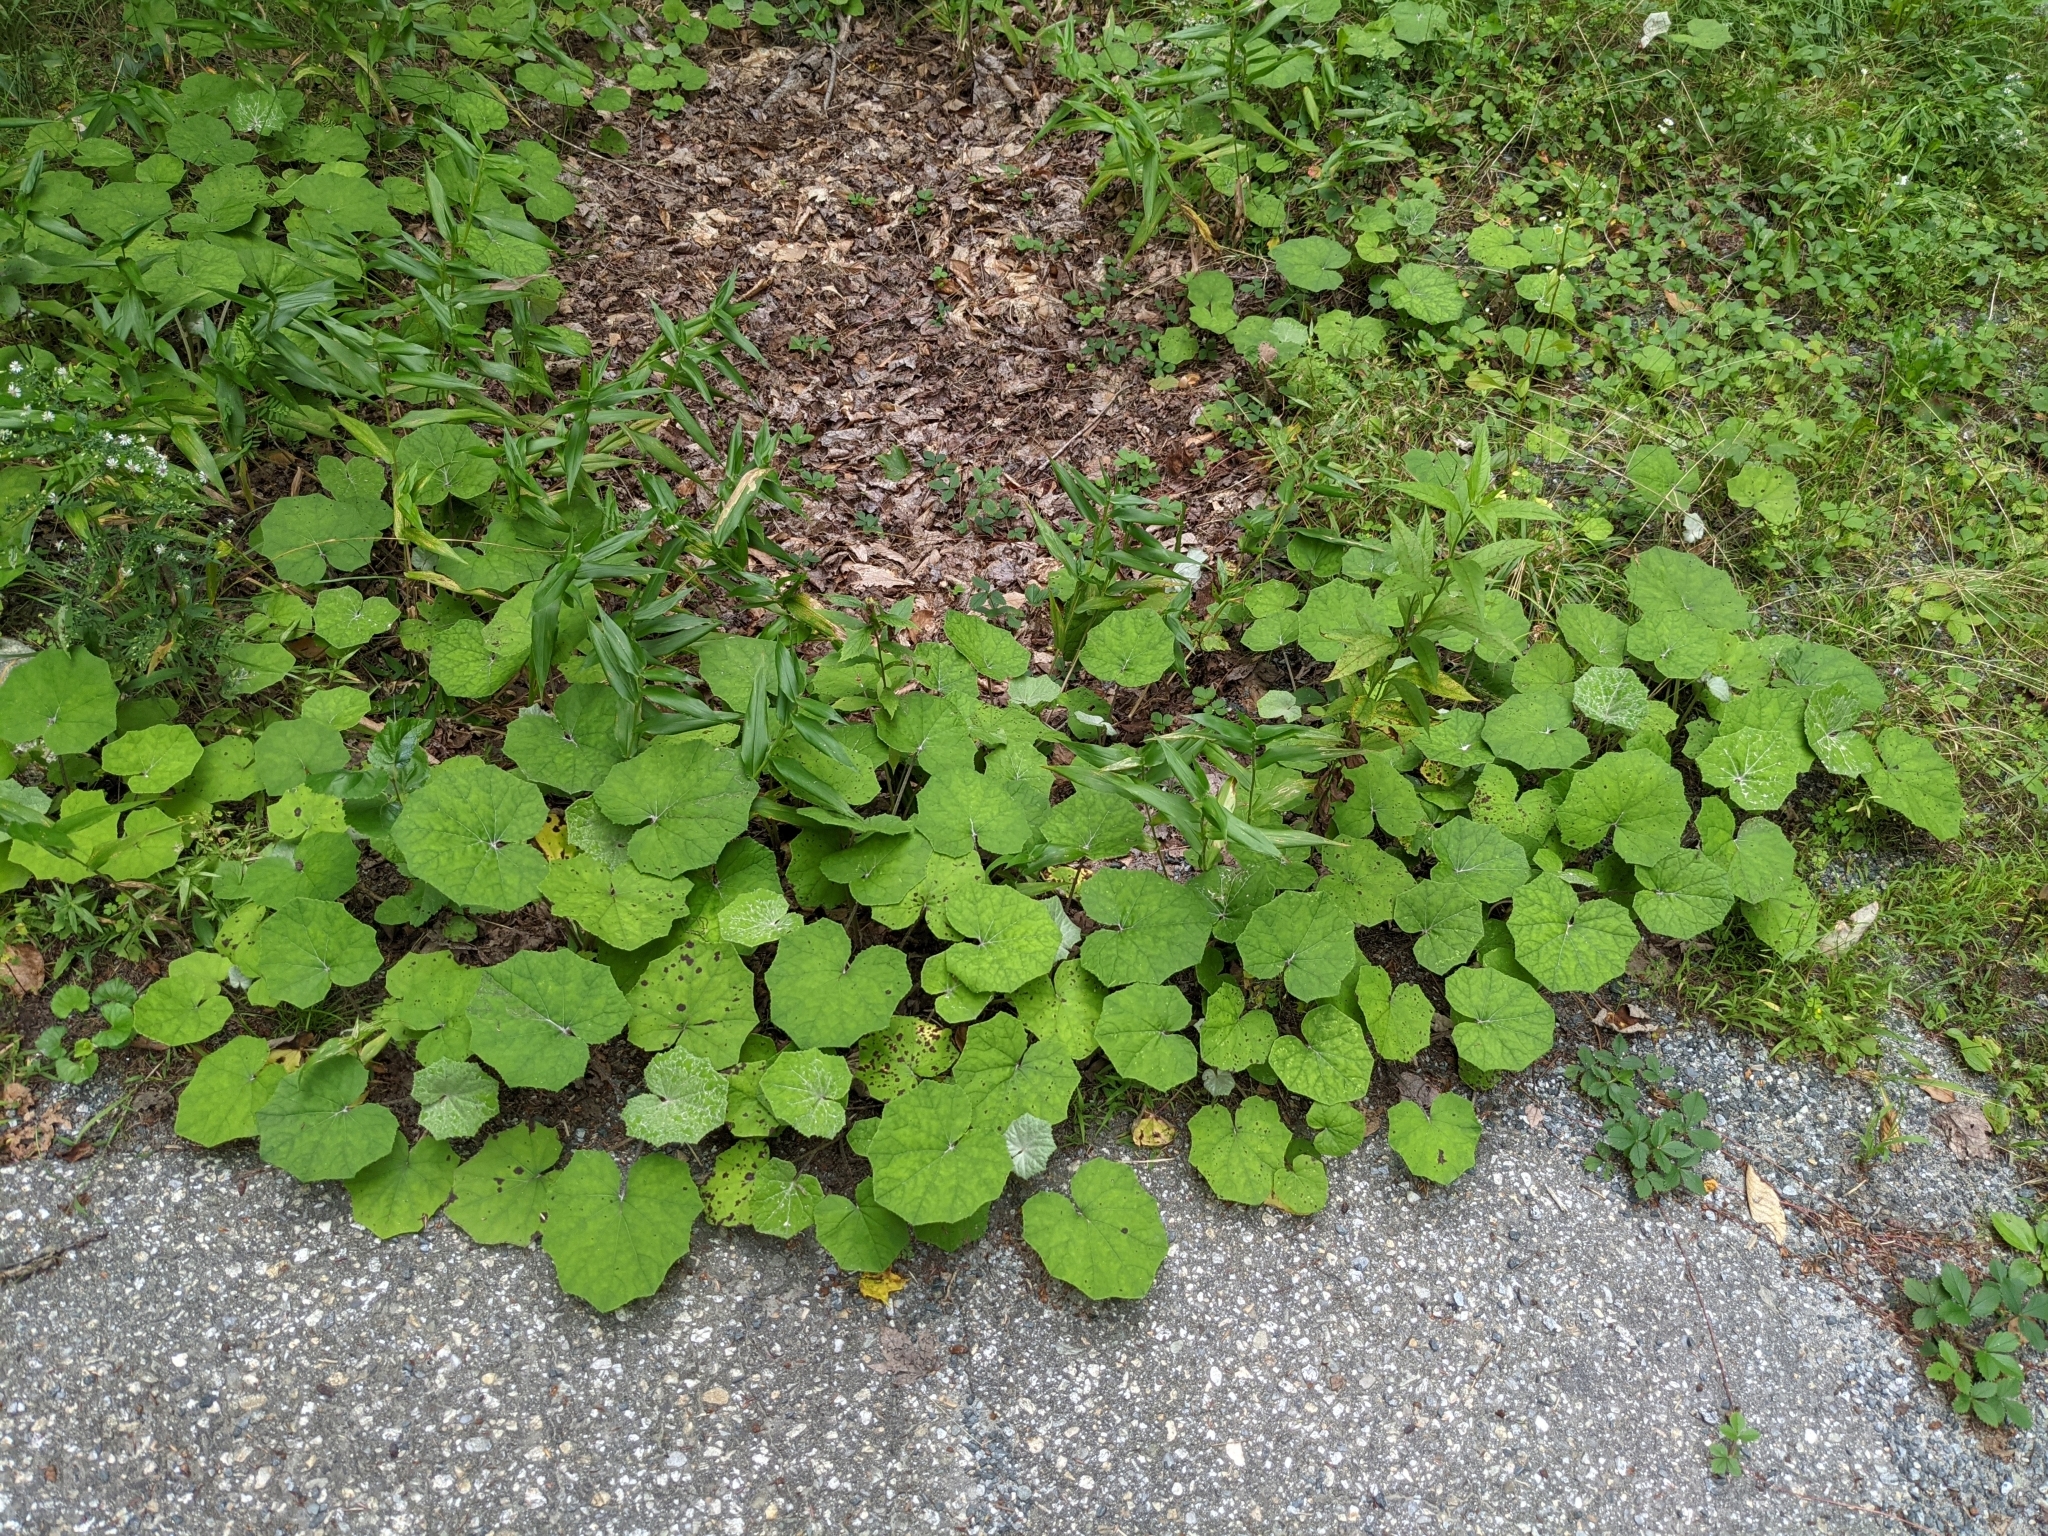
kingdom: Plantae
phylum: Tracheophyta
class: Magnoliopsida
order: Asterales
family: Asteraceae
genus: Tussilago
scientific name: Tussilago farfara
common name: Coltsfoot
